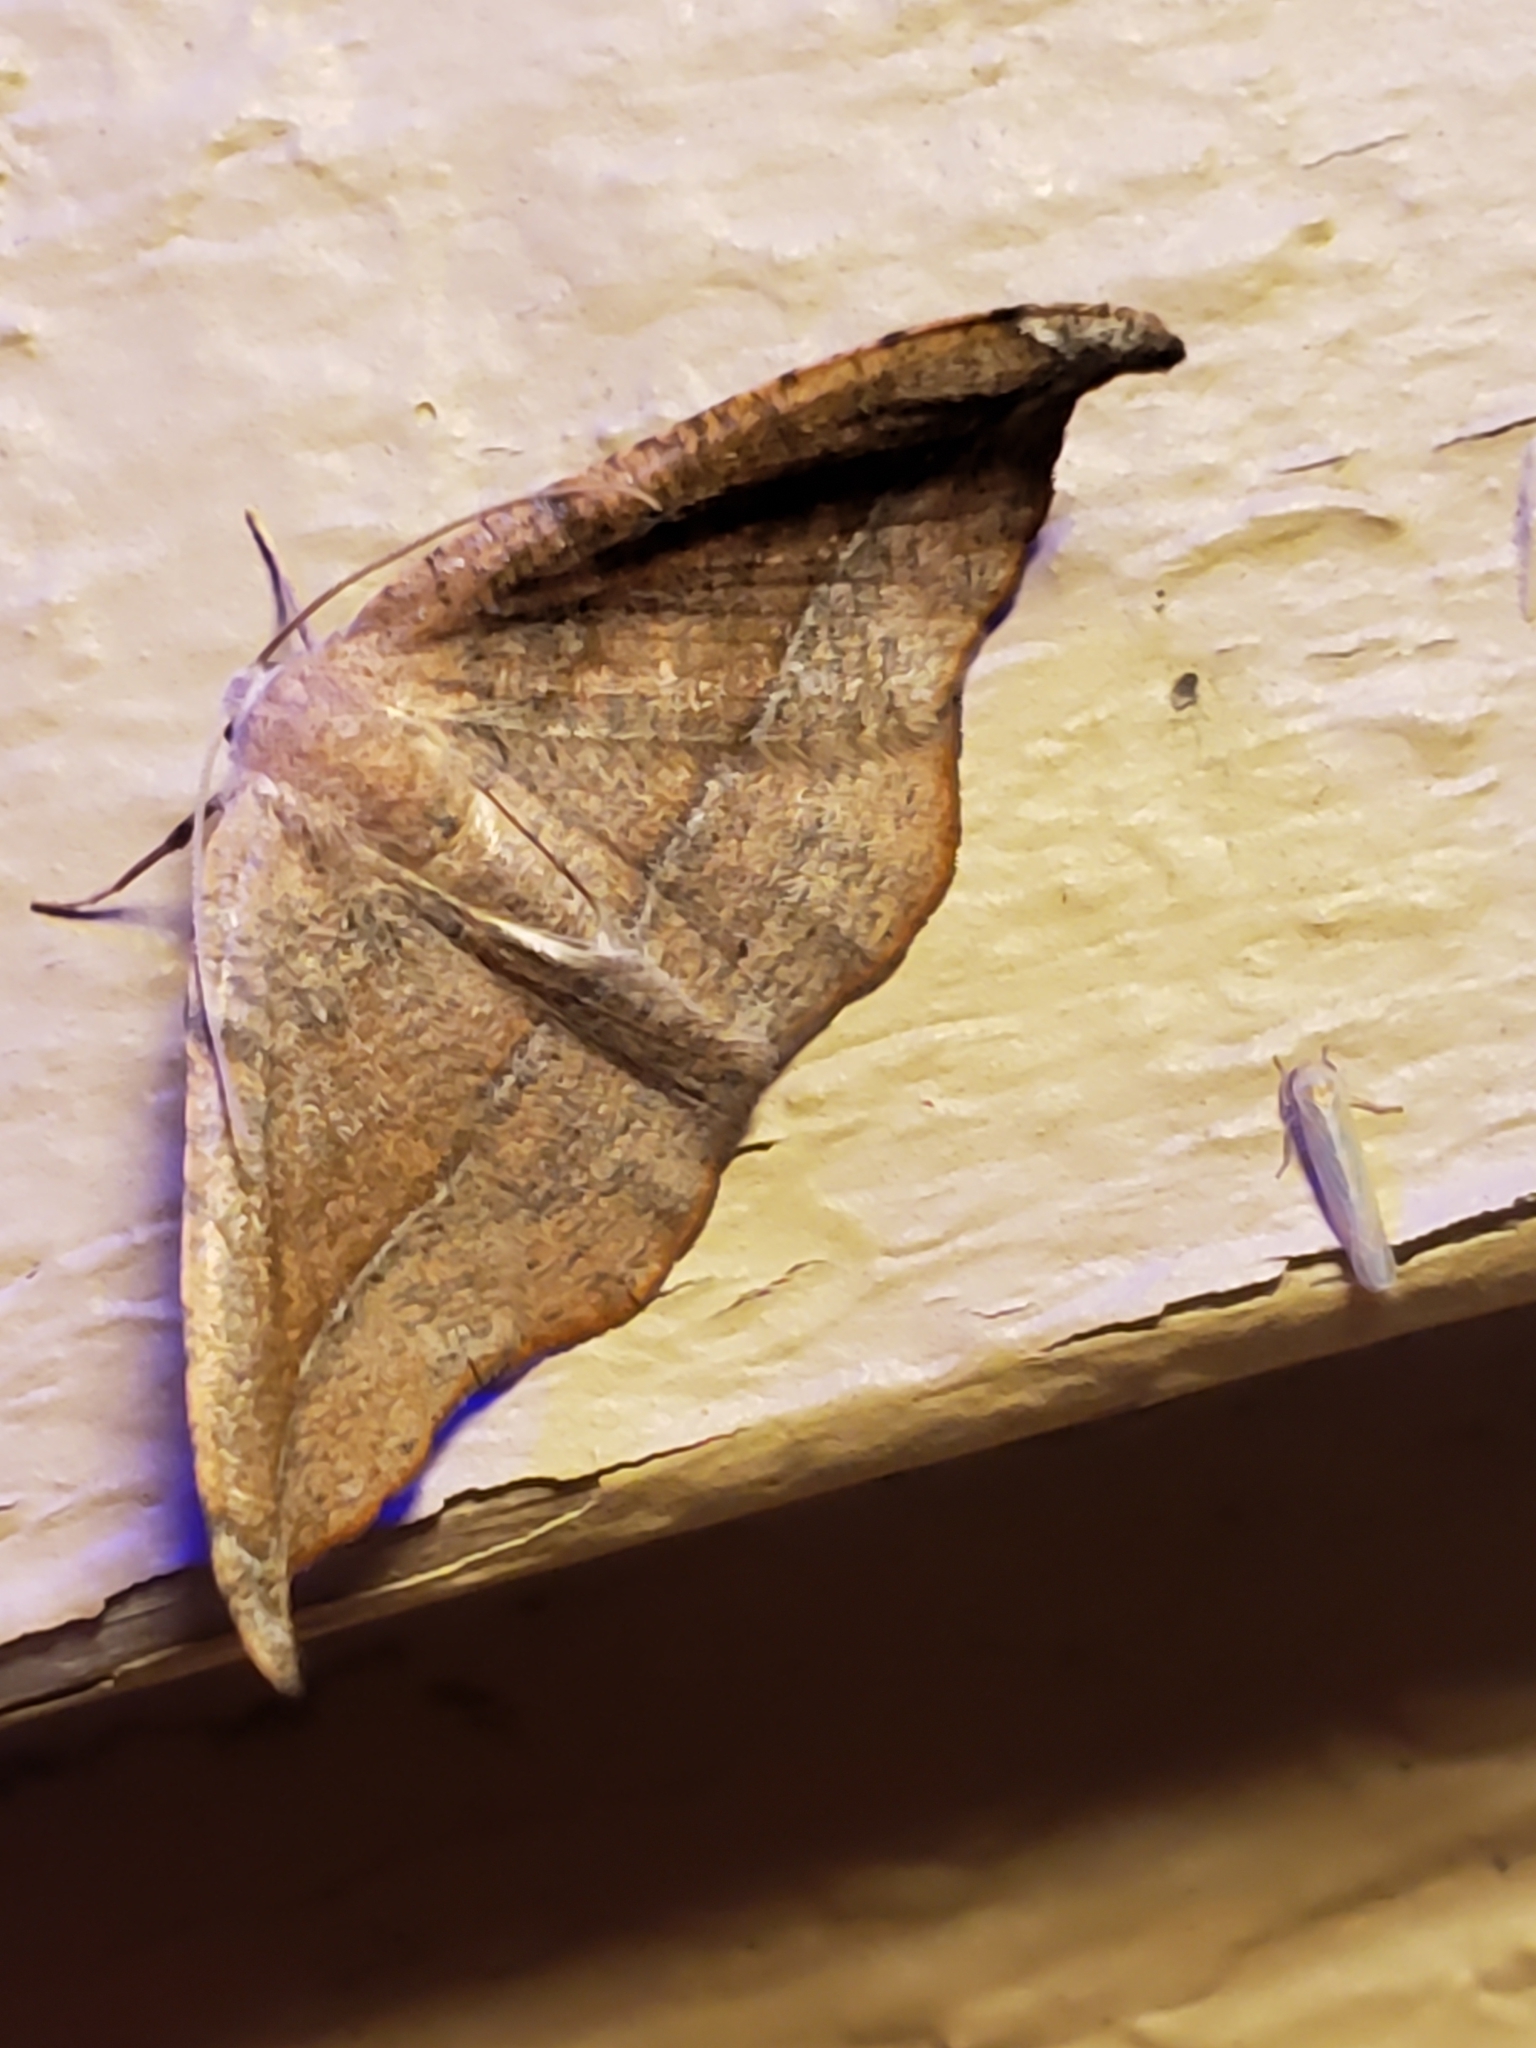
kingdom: Animalia
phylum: Arthropoda
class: Insecta
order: Lepidoptera
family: Geometridae
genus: Patalene
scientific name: Patalene olyzonaria
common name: Juniper geometer moth
